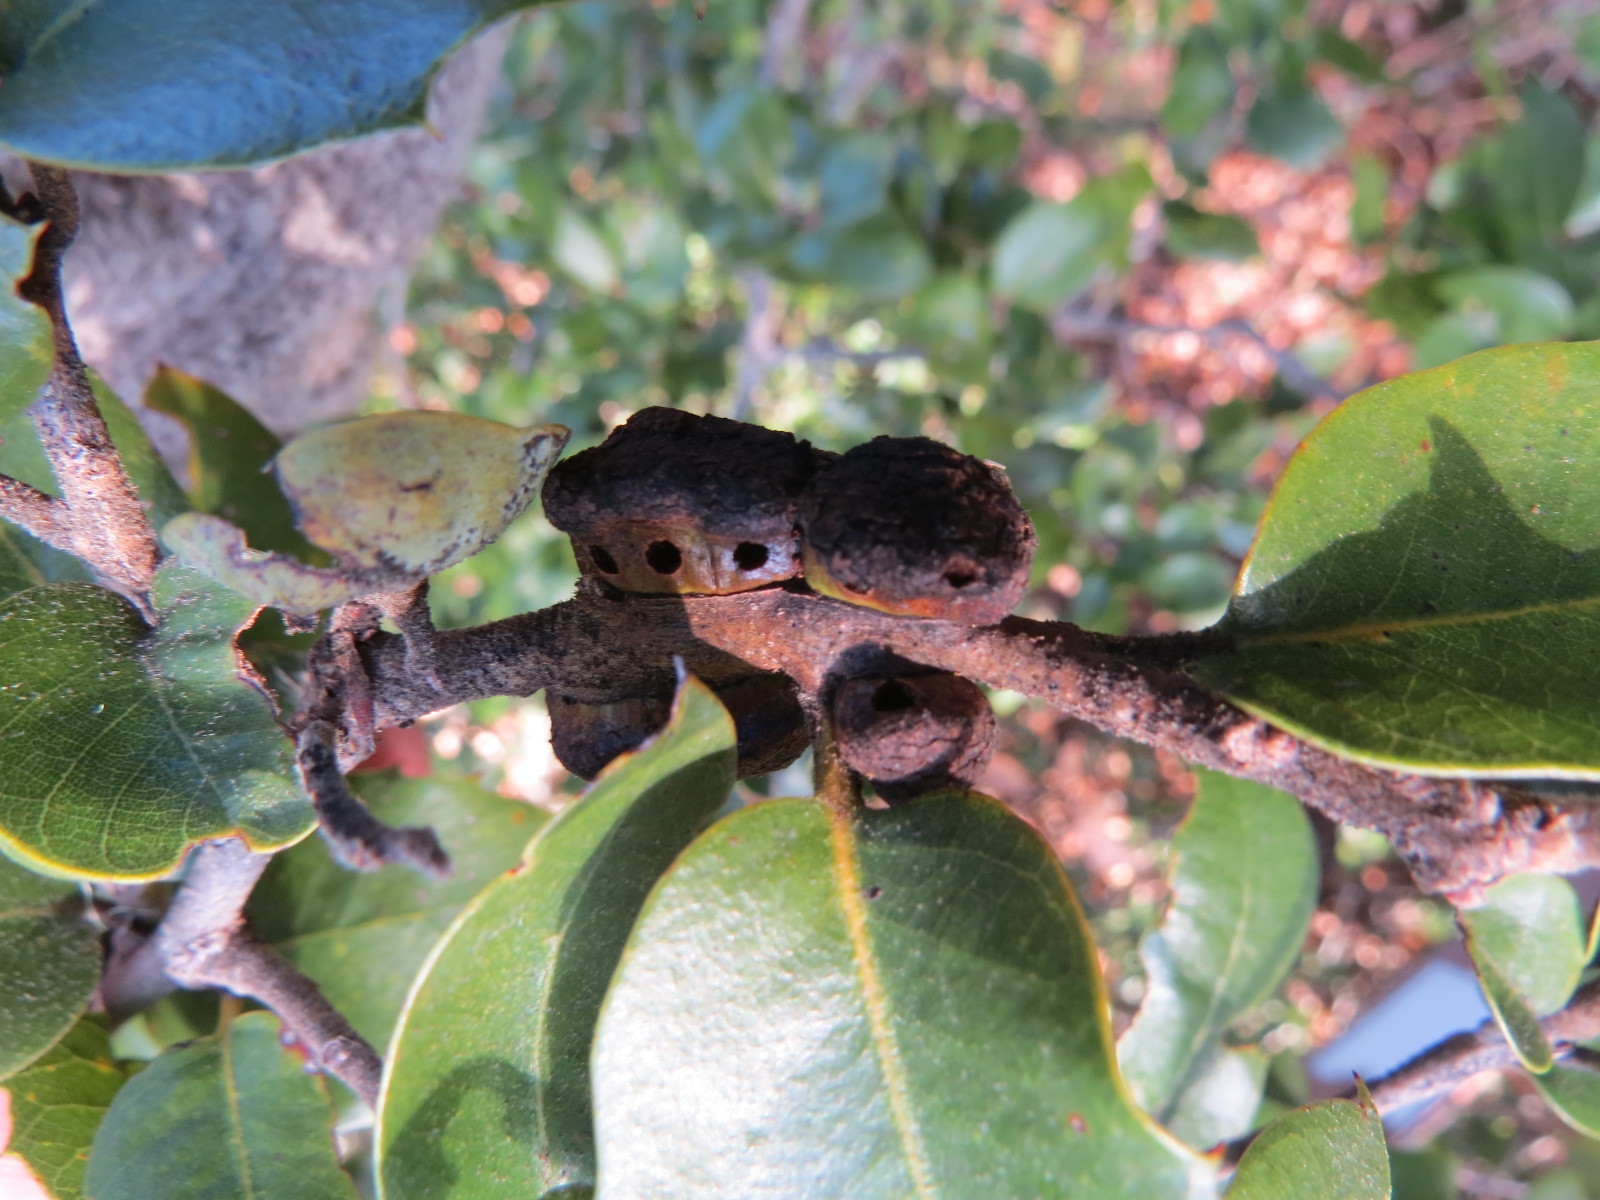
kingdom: Animalia
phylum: Arthropoda
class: Insecta
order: Hymenoptera
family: Cynipidae
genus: Disholandricus
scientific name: Disholandricus
